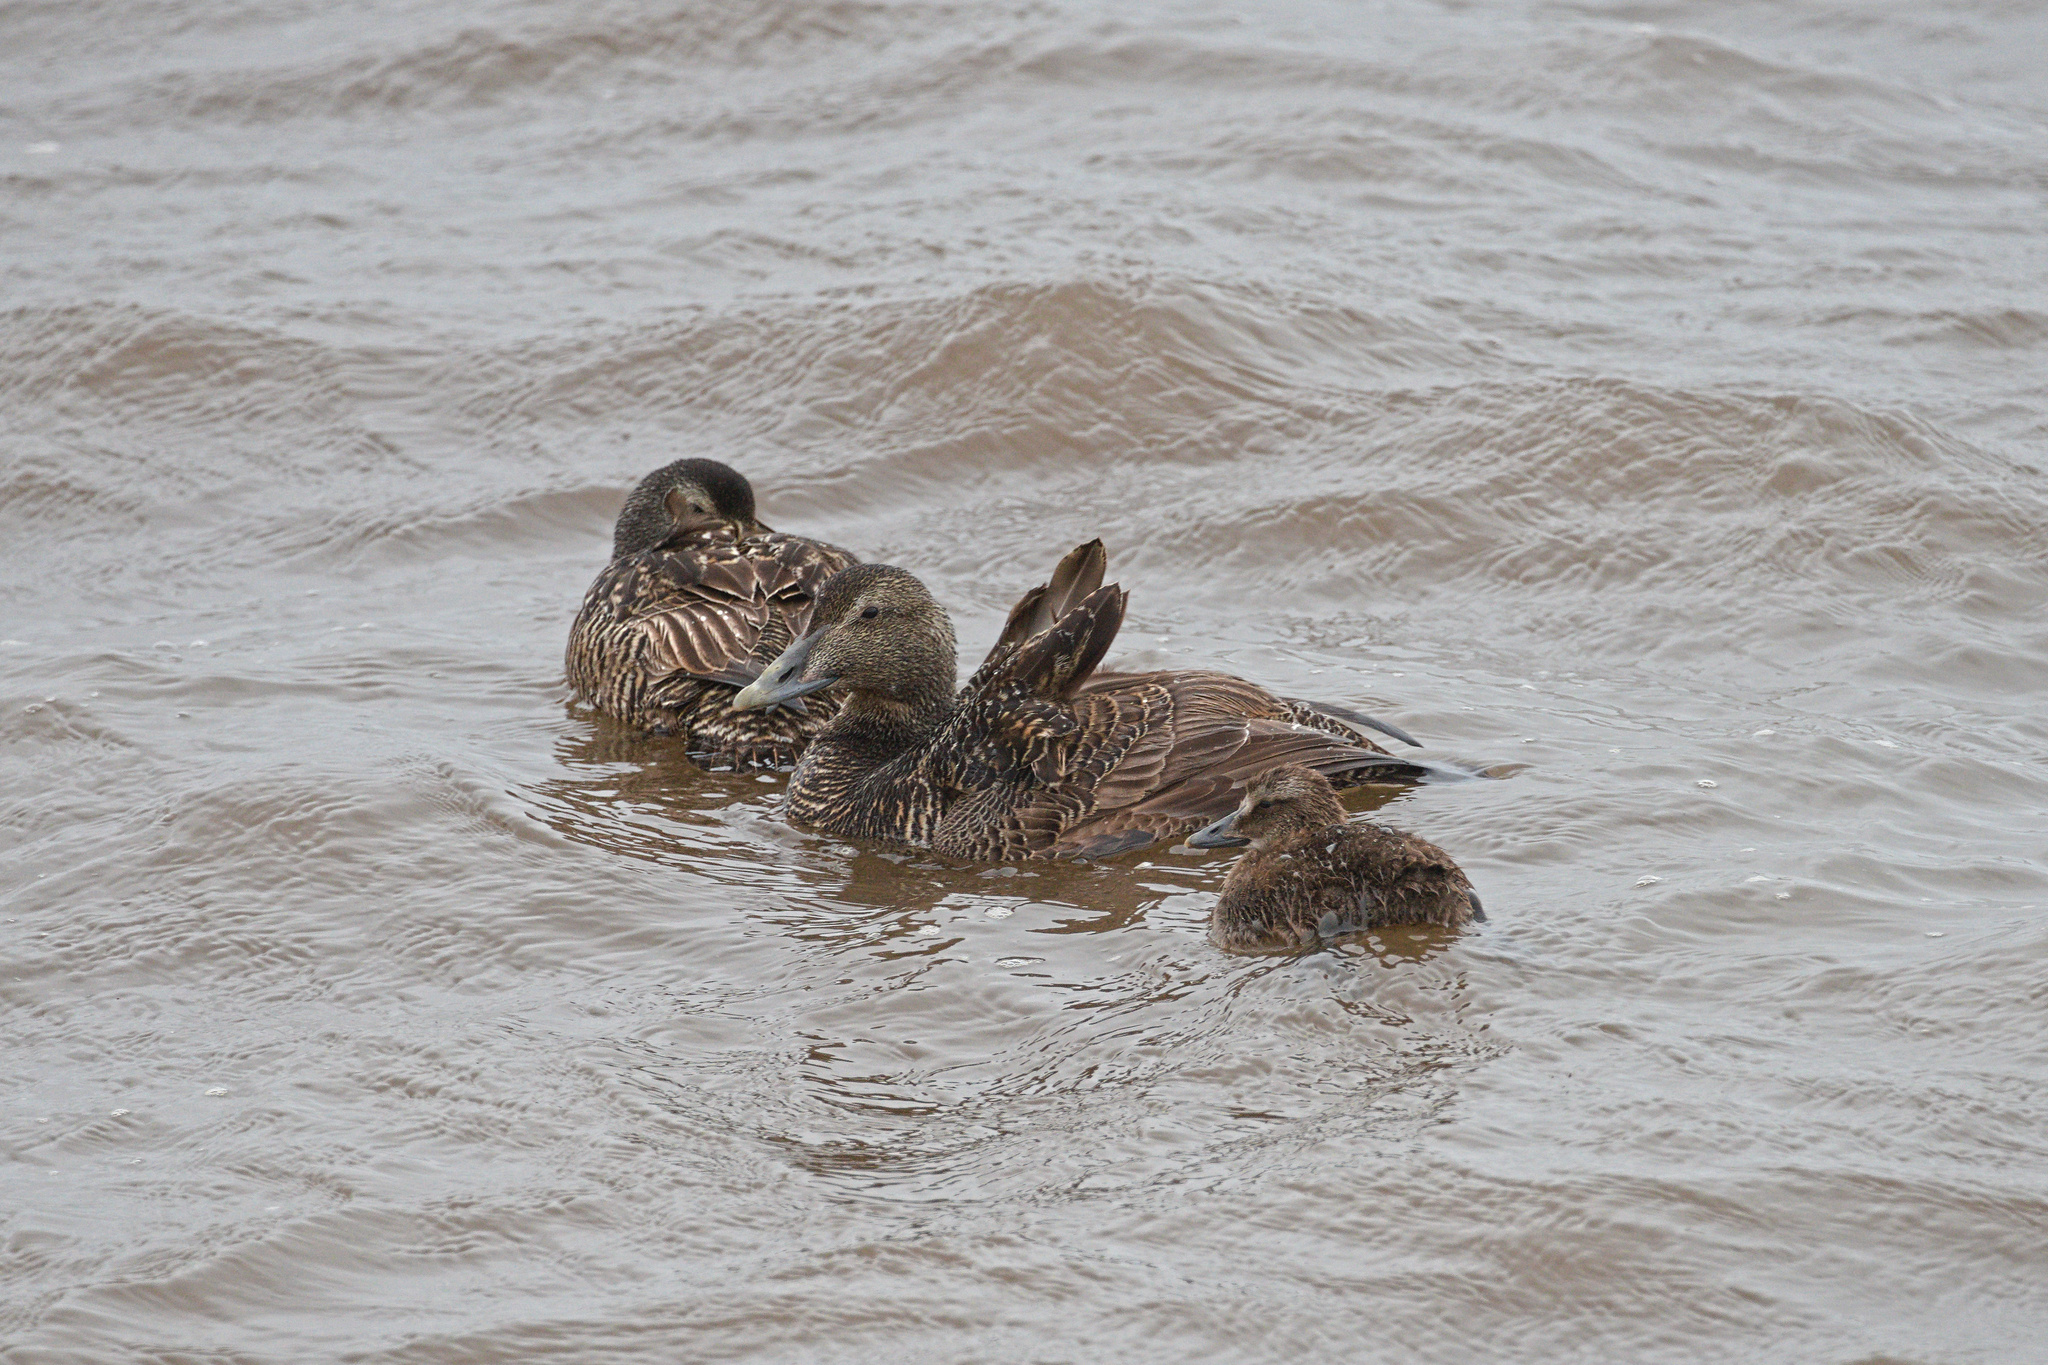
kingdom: Animalia
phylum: Chordata
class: Aves
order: Anseriformes
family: Anatidae
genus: Somateria
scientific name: Somateria mollissima
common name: Common eider
